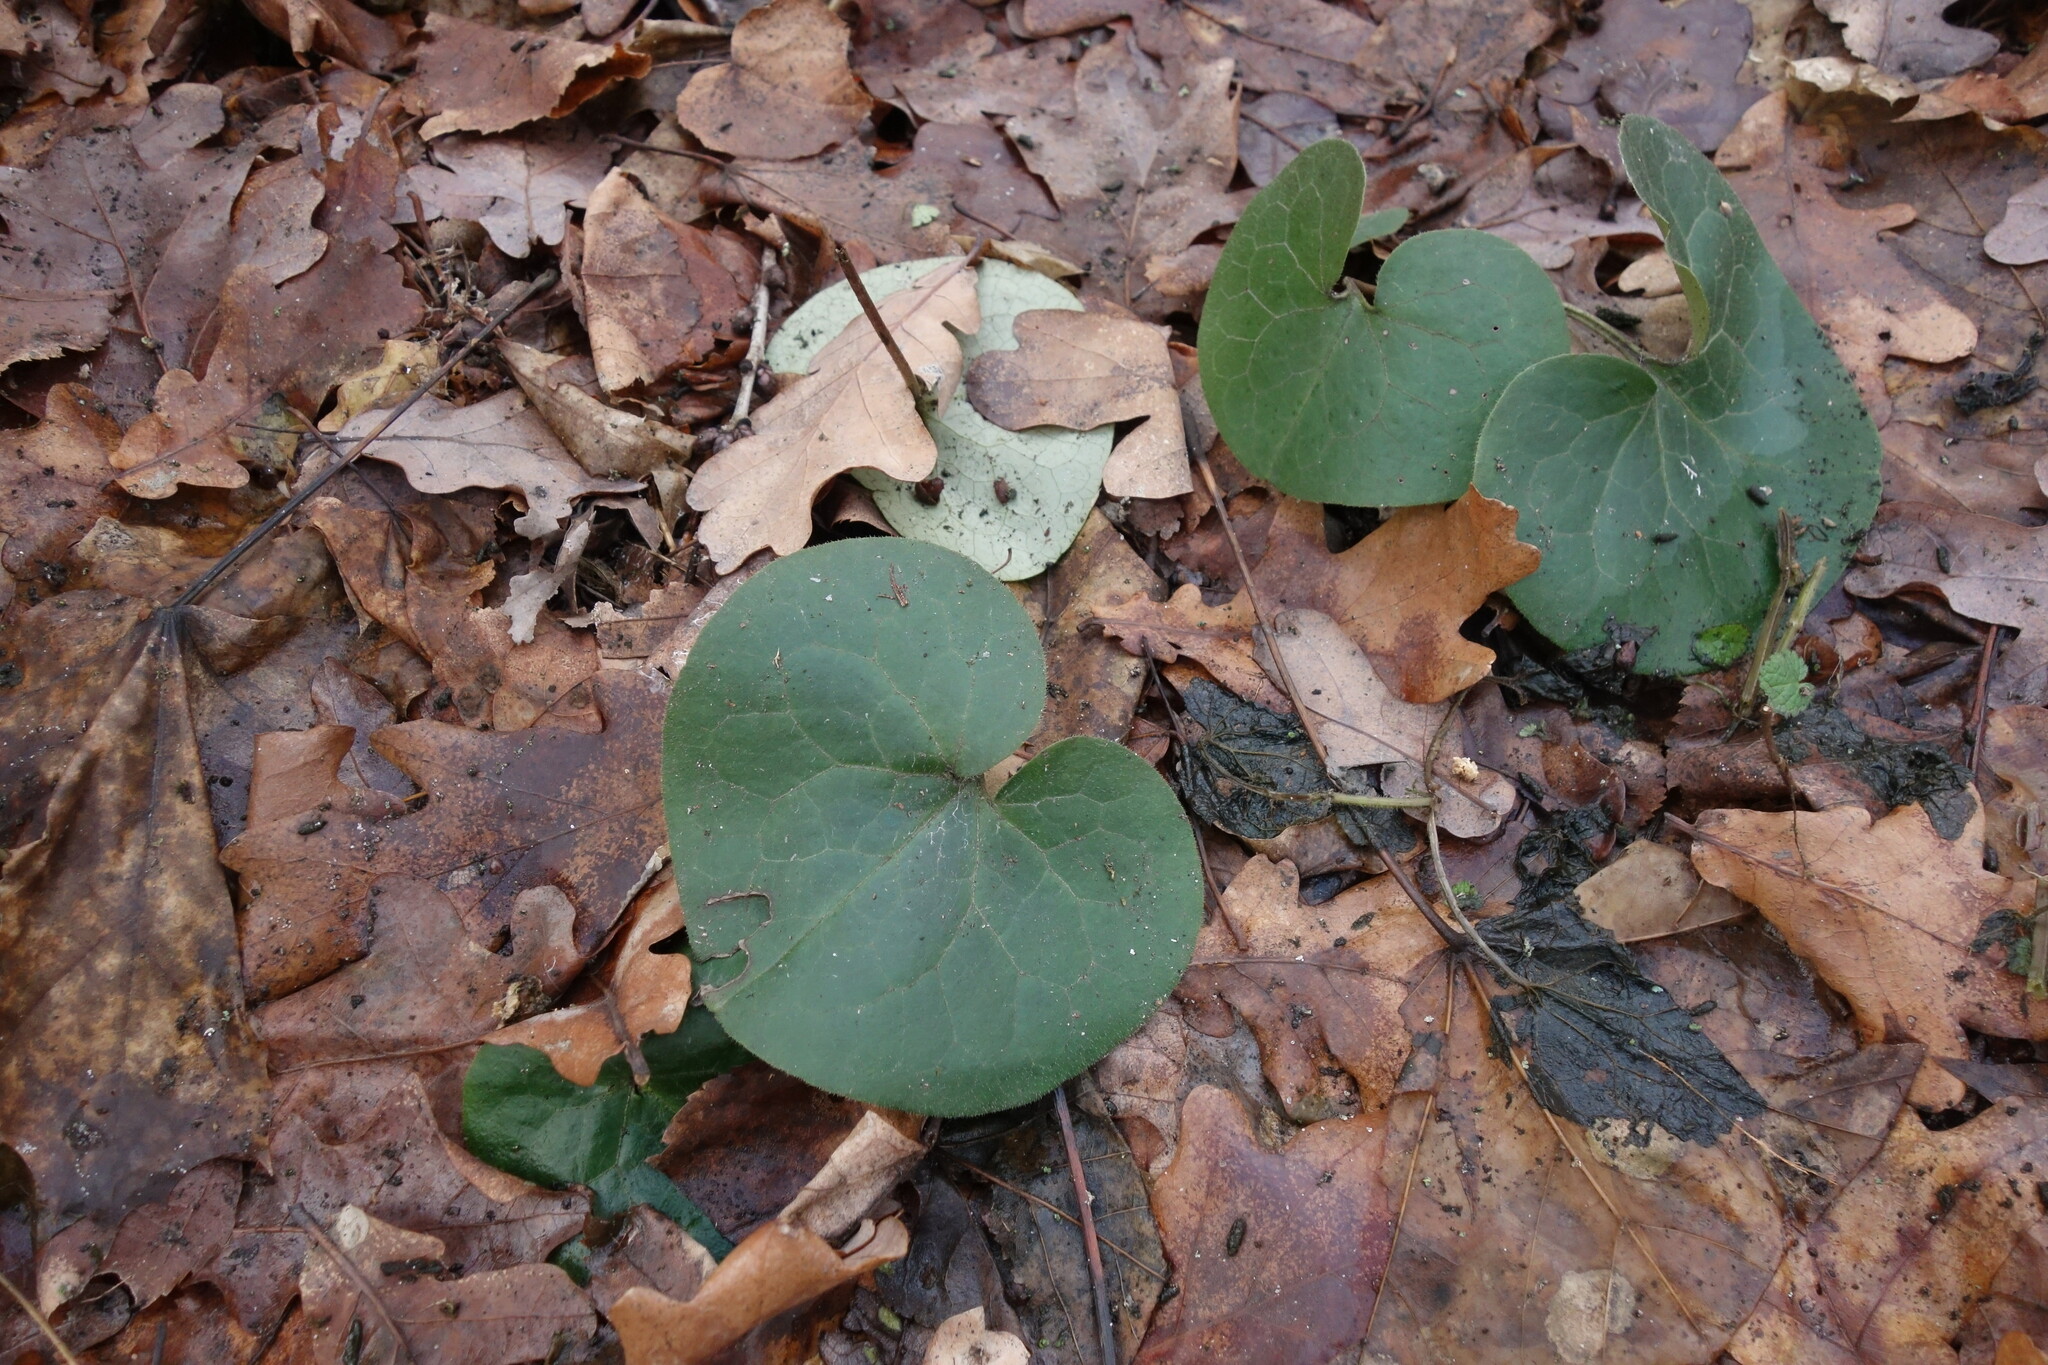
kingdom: Plantae
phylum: Tracheophyta
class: Magnoliopsida
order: Piperales
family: Aristolochiaceae
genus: Asarum
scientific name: Asarum europaeum
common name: Asarabacca
